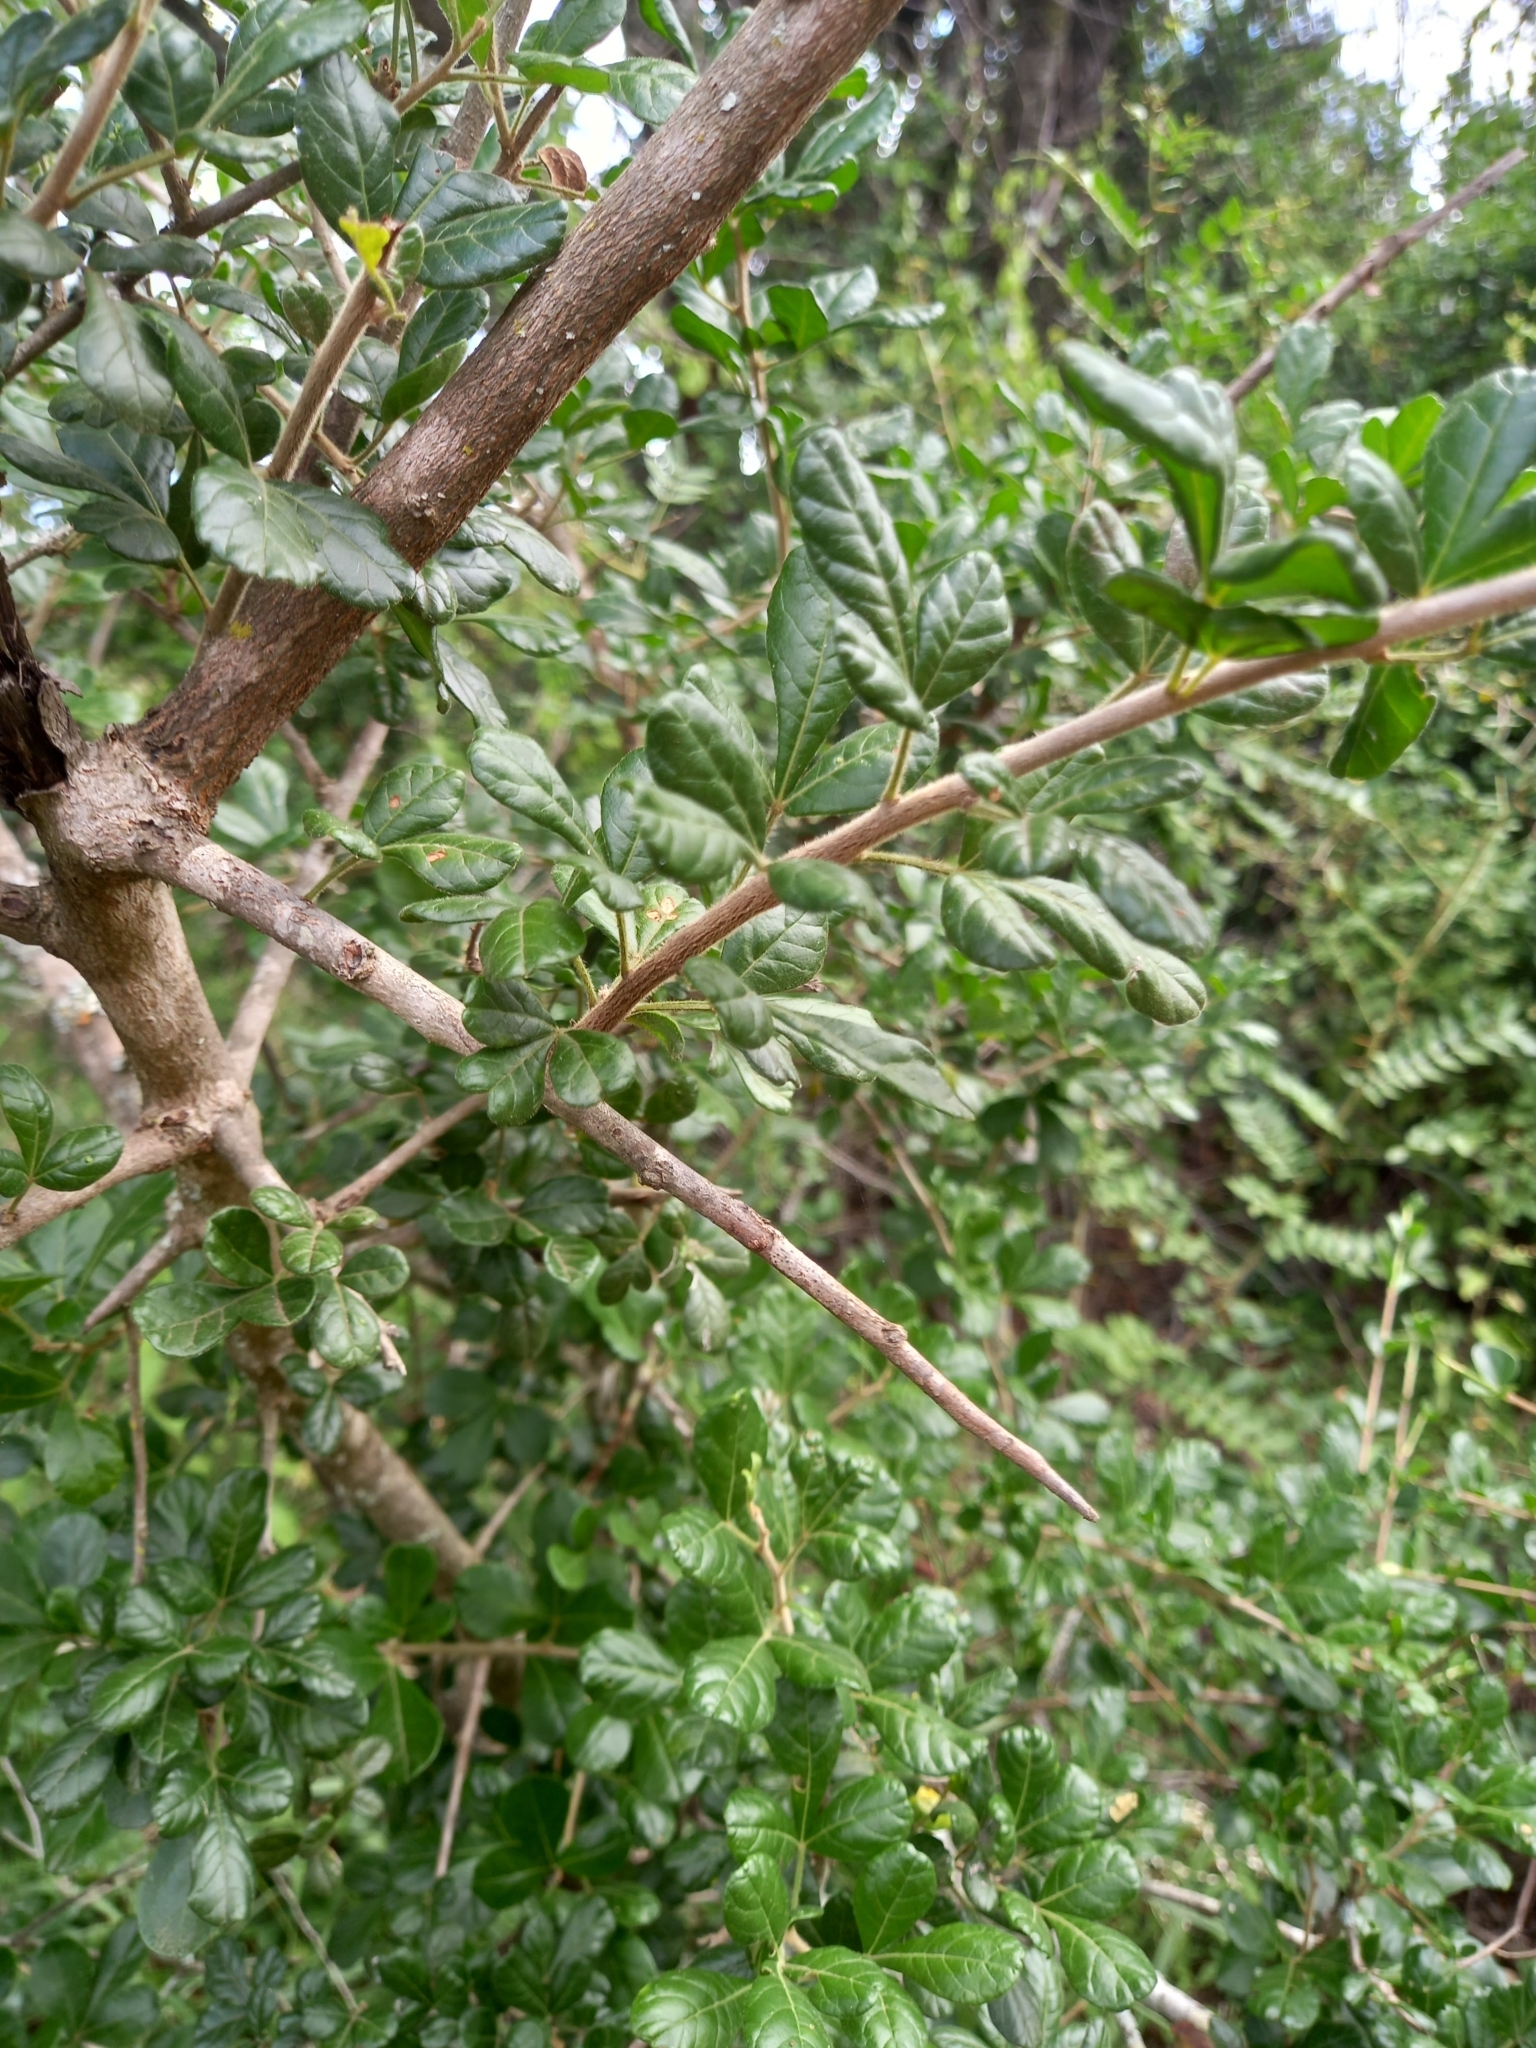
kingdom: Plantae
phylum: Tracheophyta
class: Magnoliopsida
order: Sapindales
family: Anacardiaceae
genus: Searsia
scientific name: Searsia refracta
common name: Thorny crow-berry
